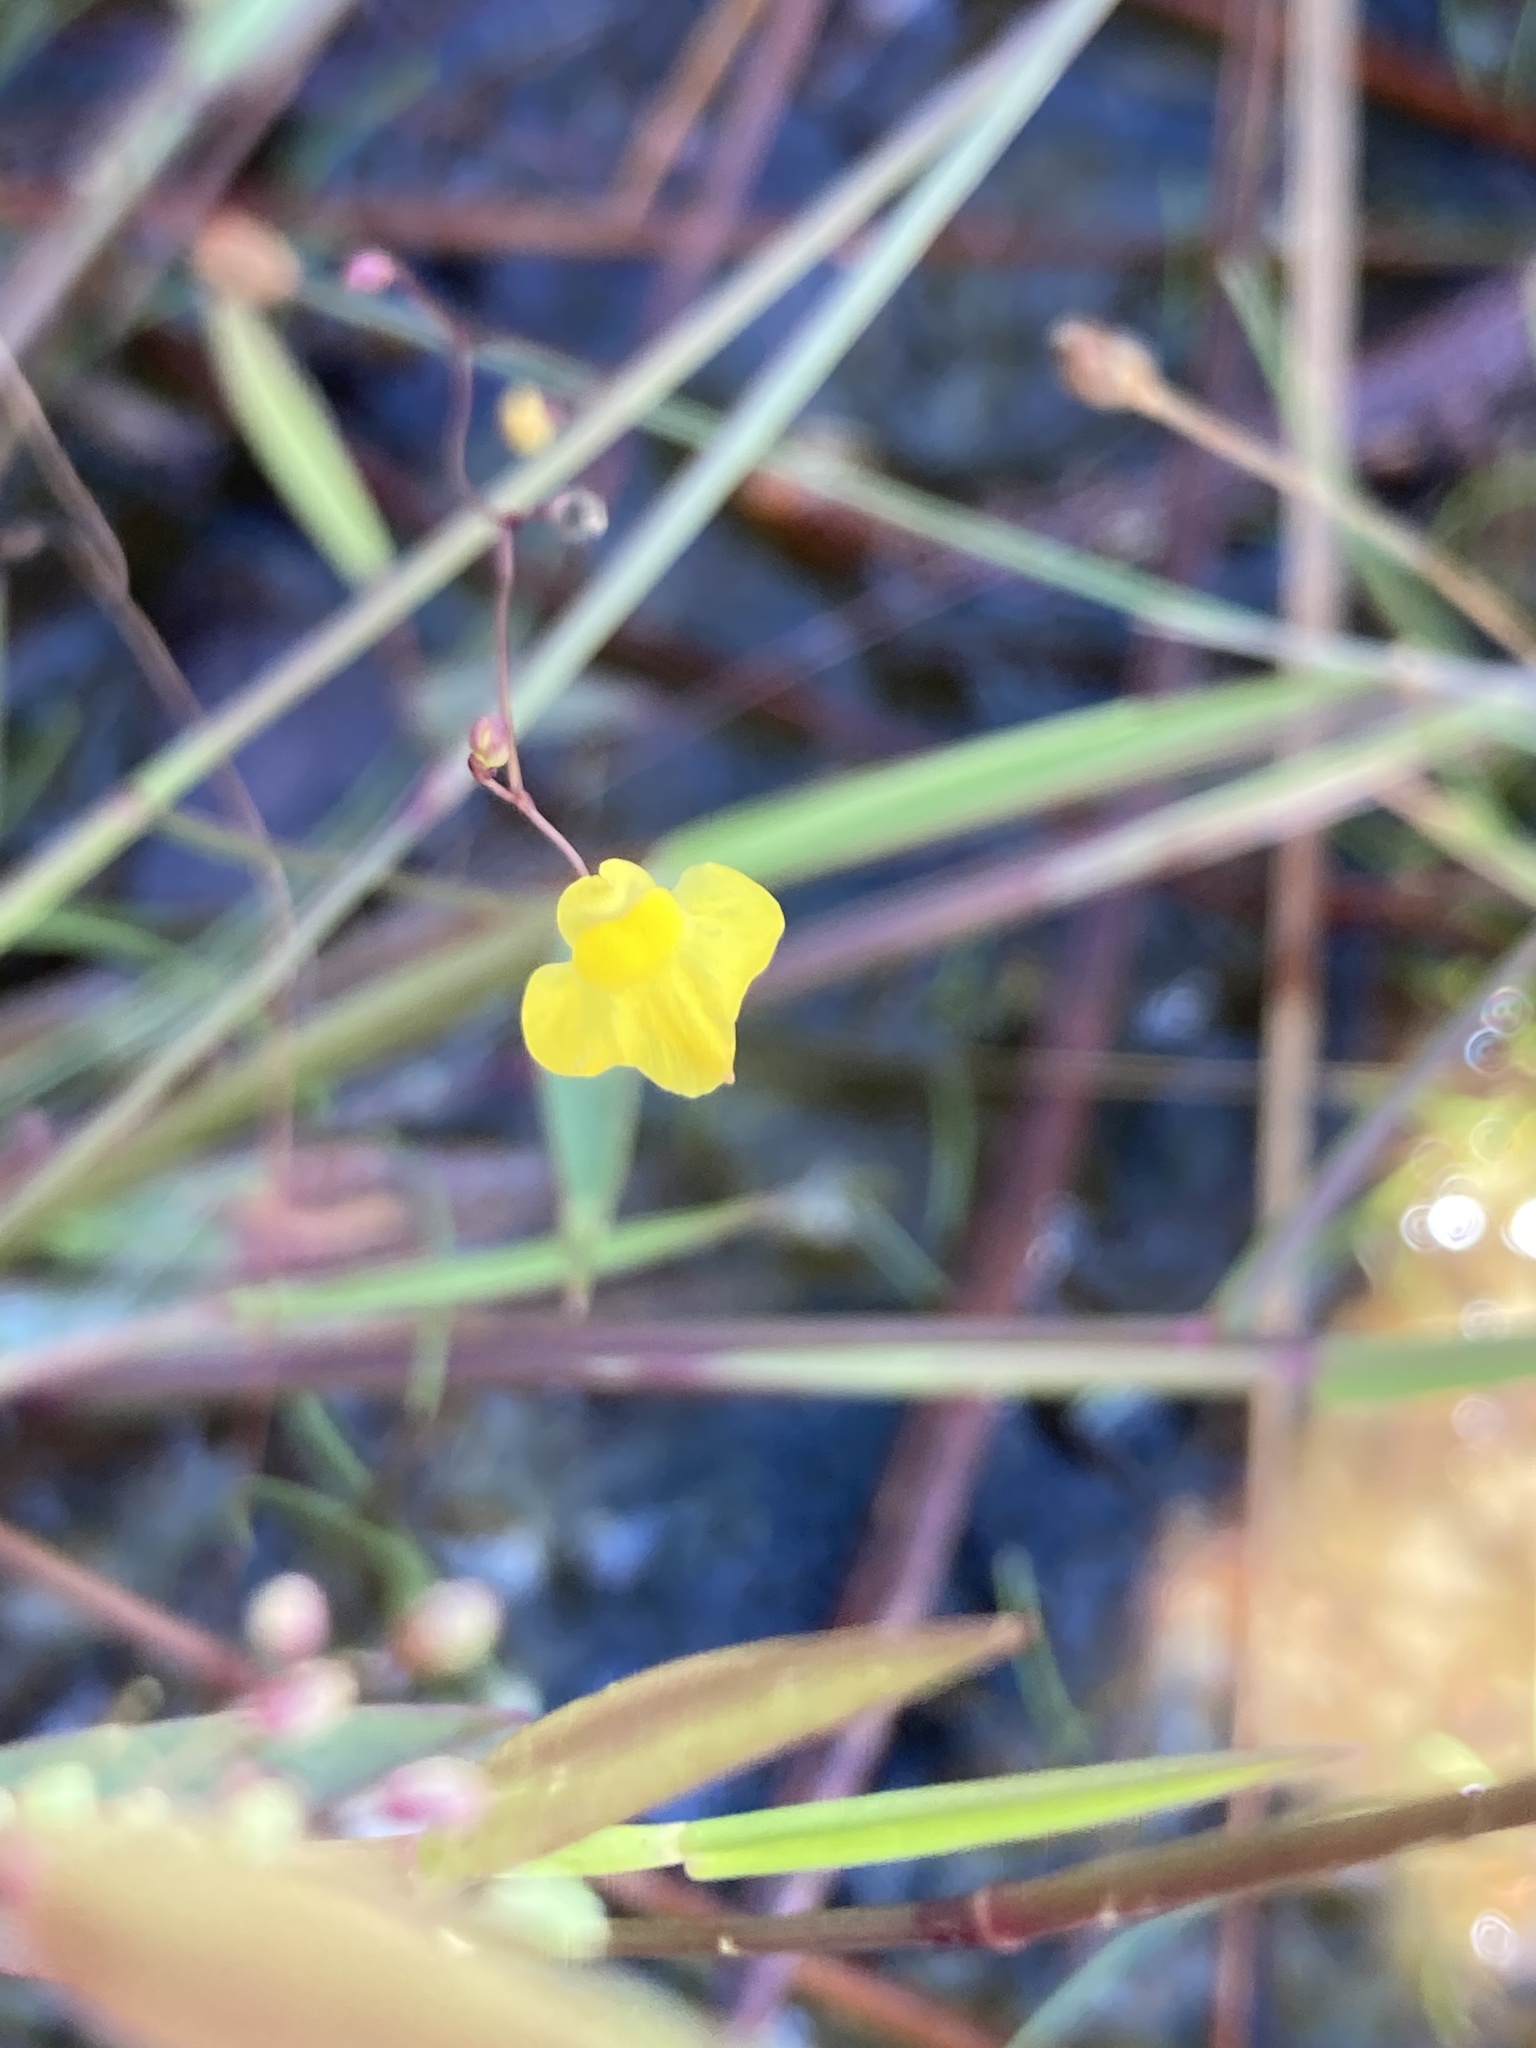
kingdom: Plantae
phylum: Tracheophyta
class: Magnoliopsida
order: Lamiales
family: Lentibulariaceae
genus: Utricularia
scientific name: Utricularia subulata
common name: Tiny bladderwort
